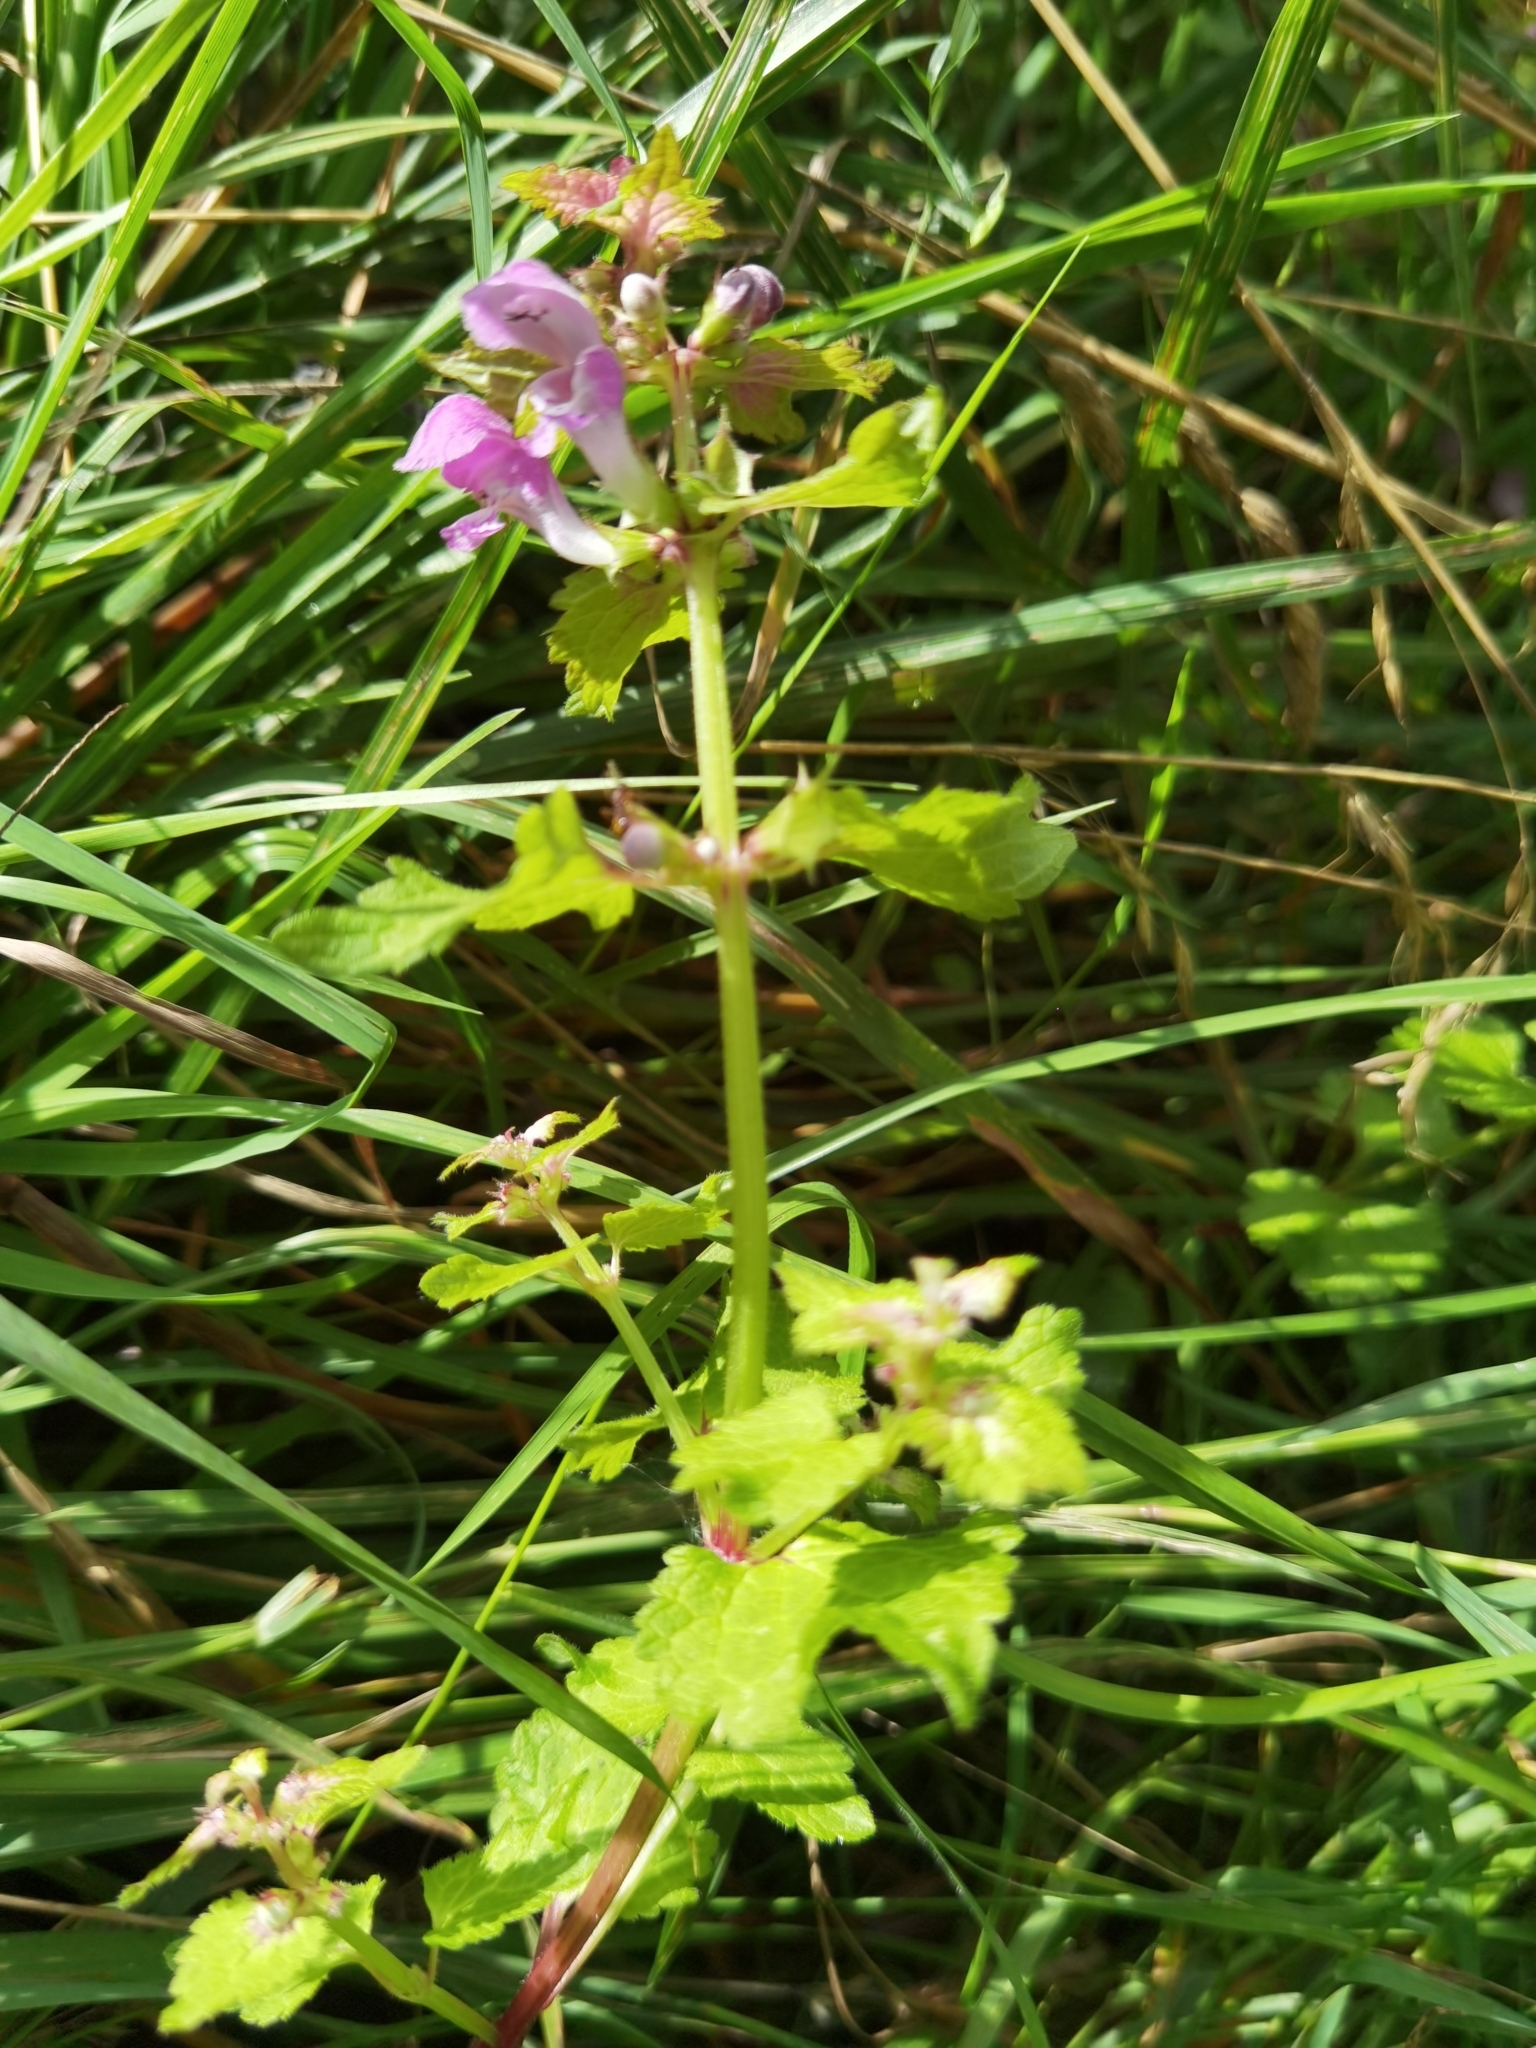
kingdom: Plantae
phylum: Tracheophyta
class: Magnoliopsida
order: Lamiales
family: Lamiaceae
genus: Lamium
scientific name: Lamium maculatum
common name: Spotted dead-nettle
